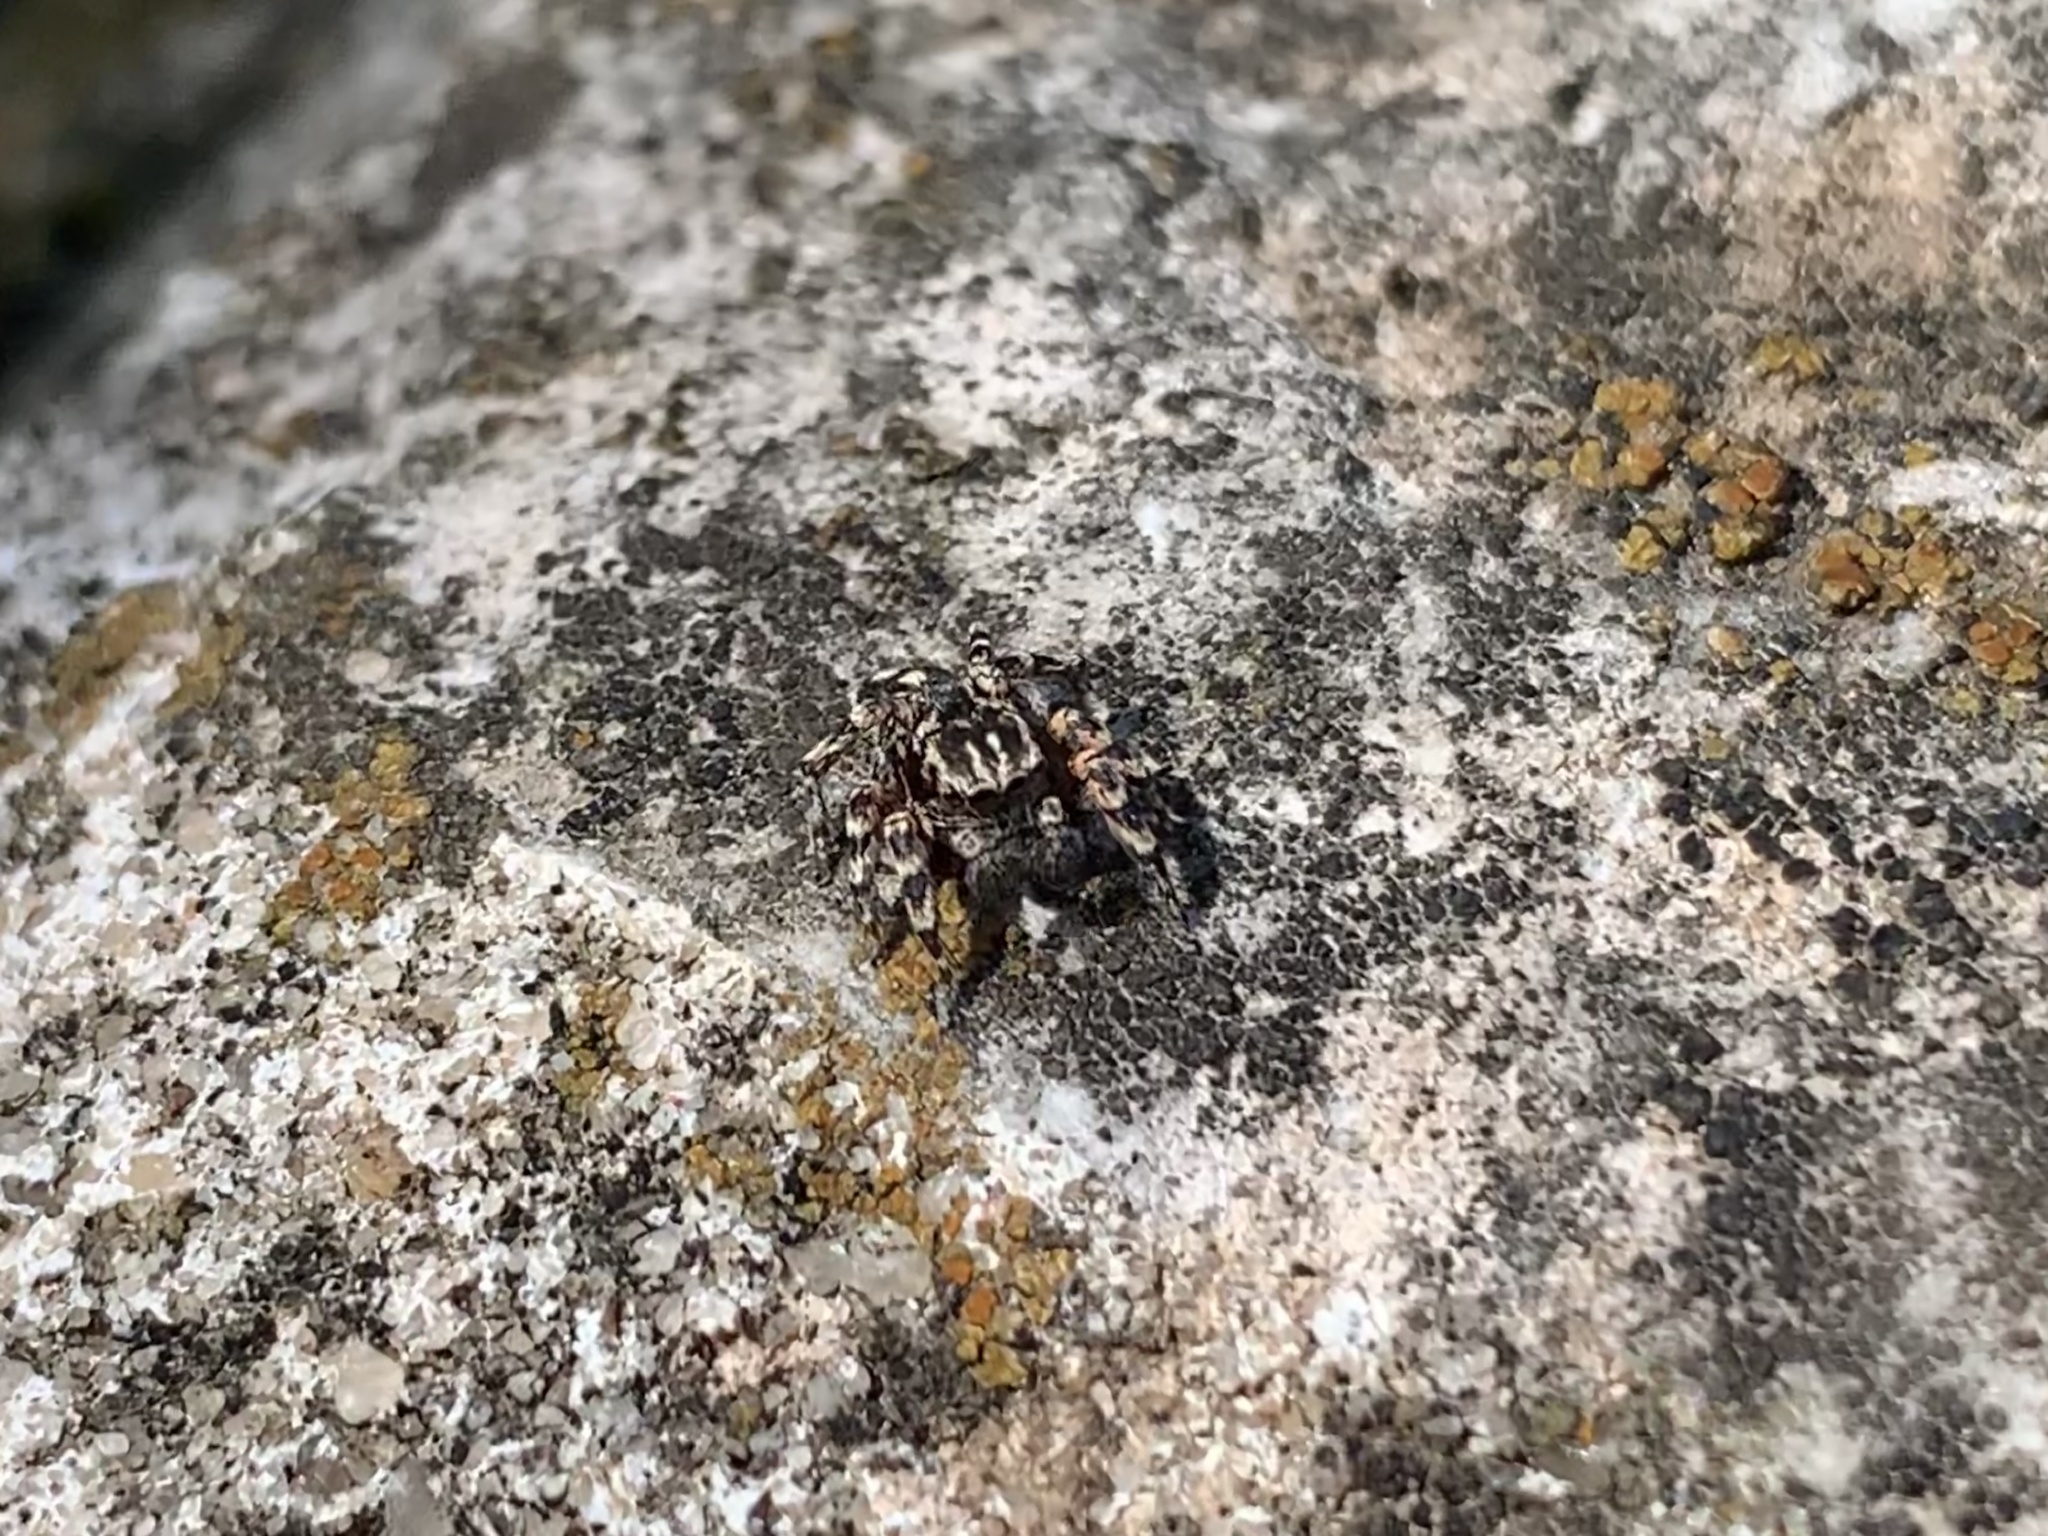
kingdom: Animalia
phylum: Arthropoda
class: Arachnida
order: Araneae
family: Salticidae
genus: Habronattus
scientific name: Habronattus fallax
